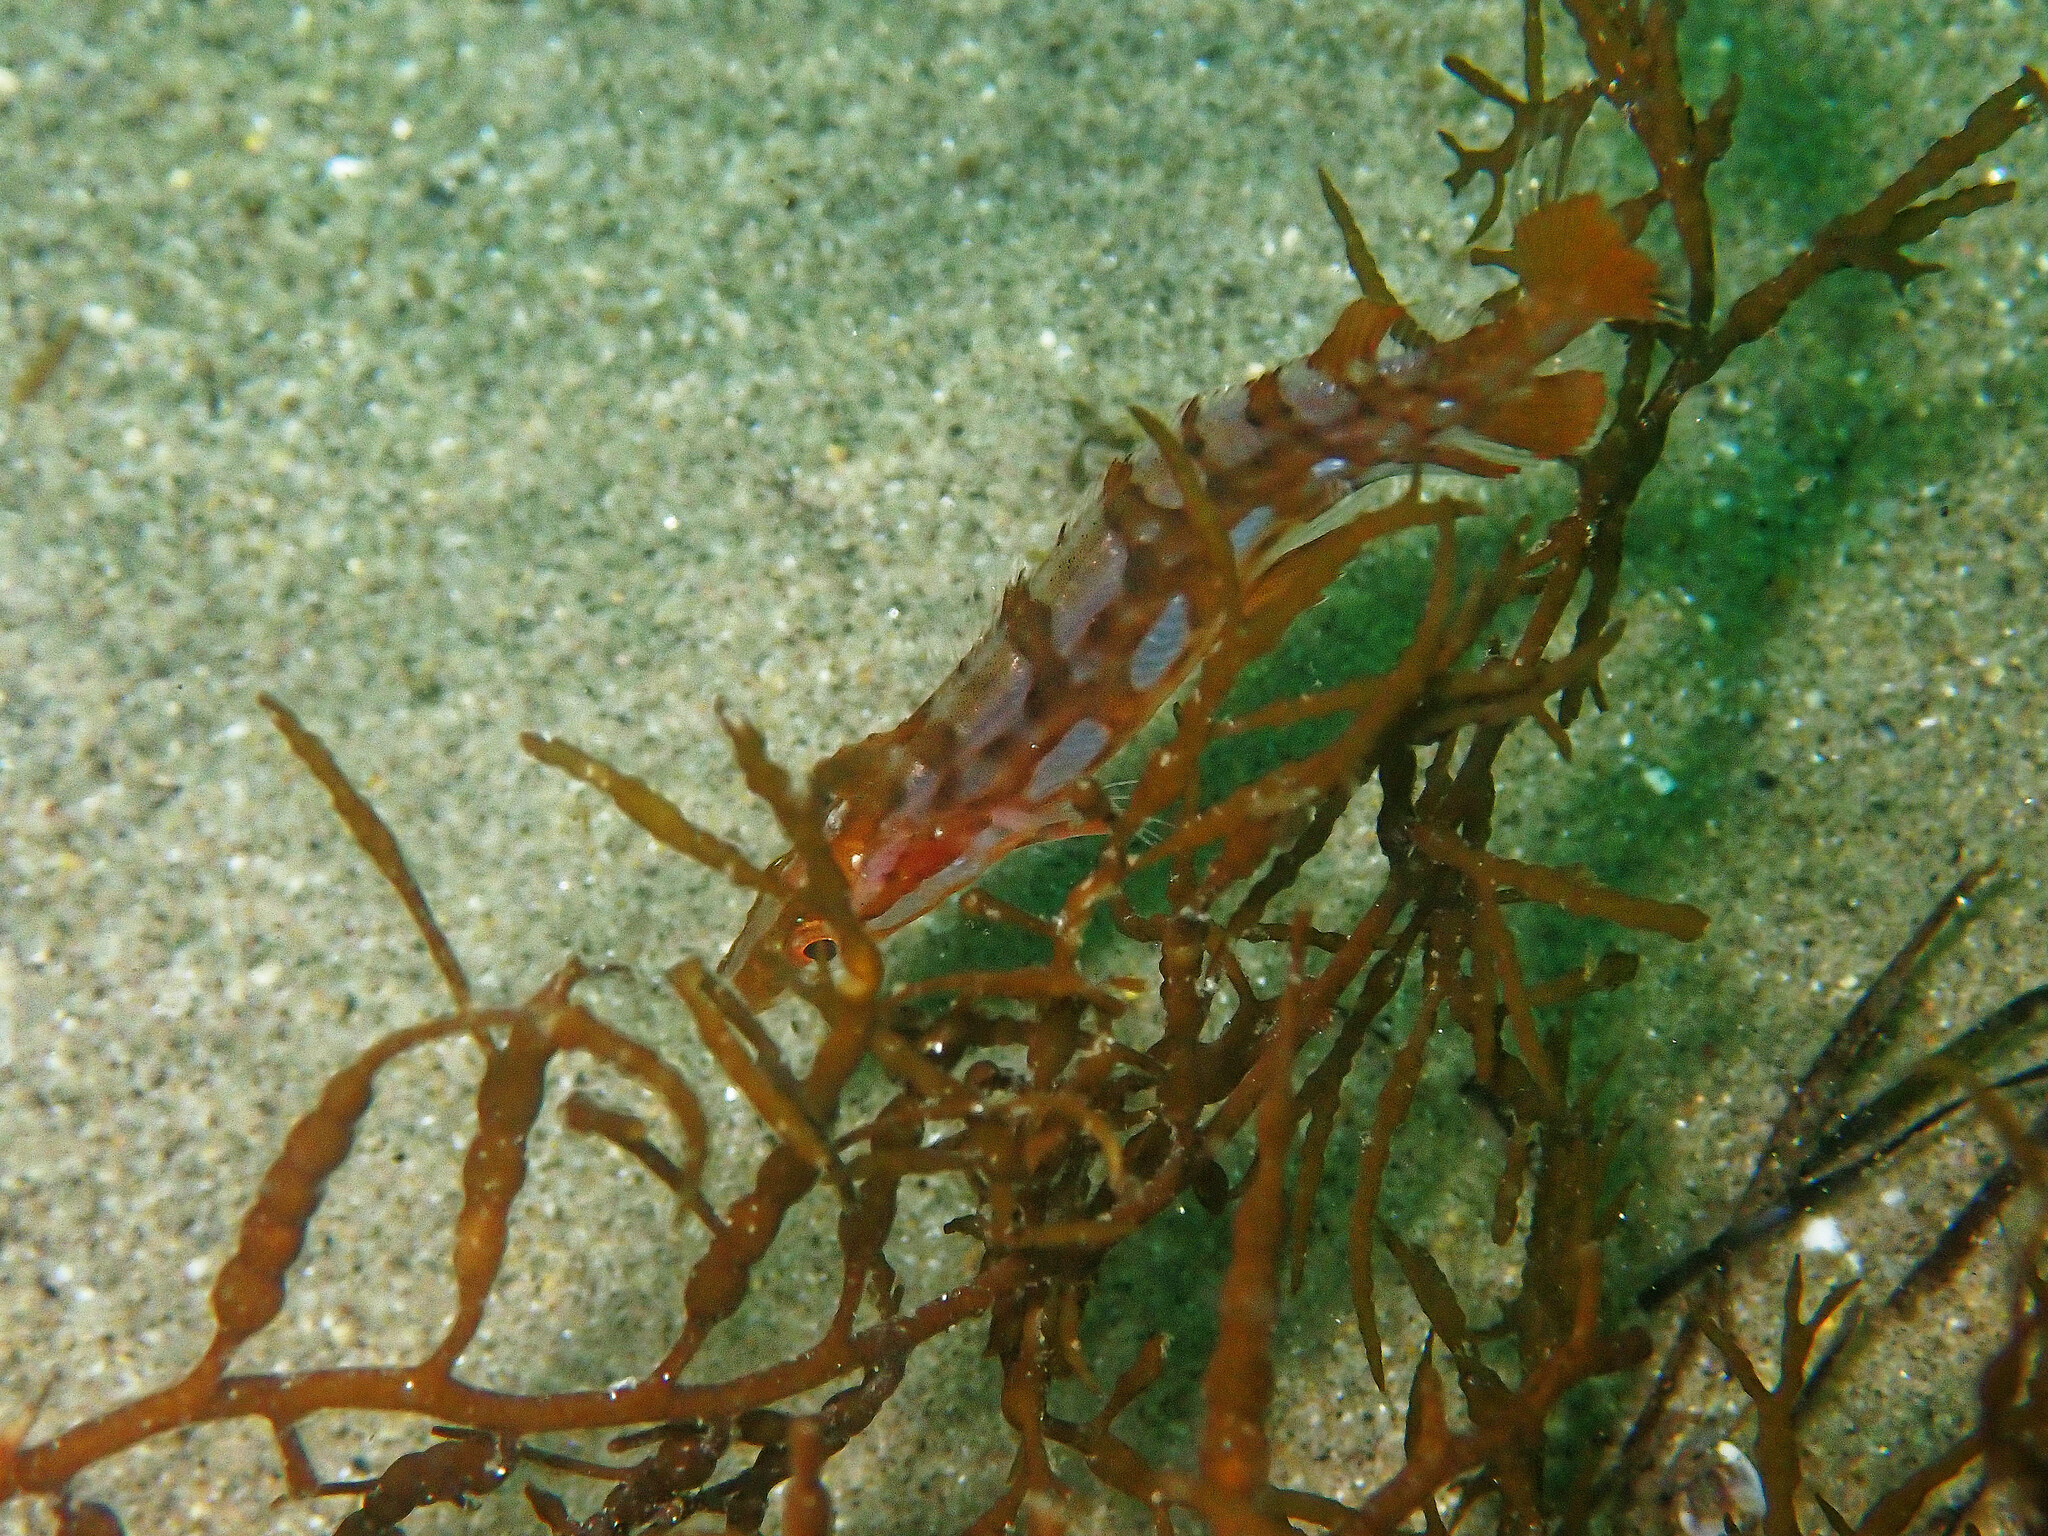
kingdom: Animalia
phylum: Chordata
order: Perciformes
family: Clinidae
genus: Heterostichus
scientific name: Heterostichus rostratus
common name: Giant kelpfish
